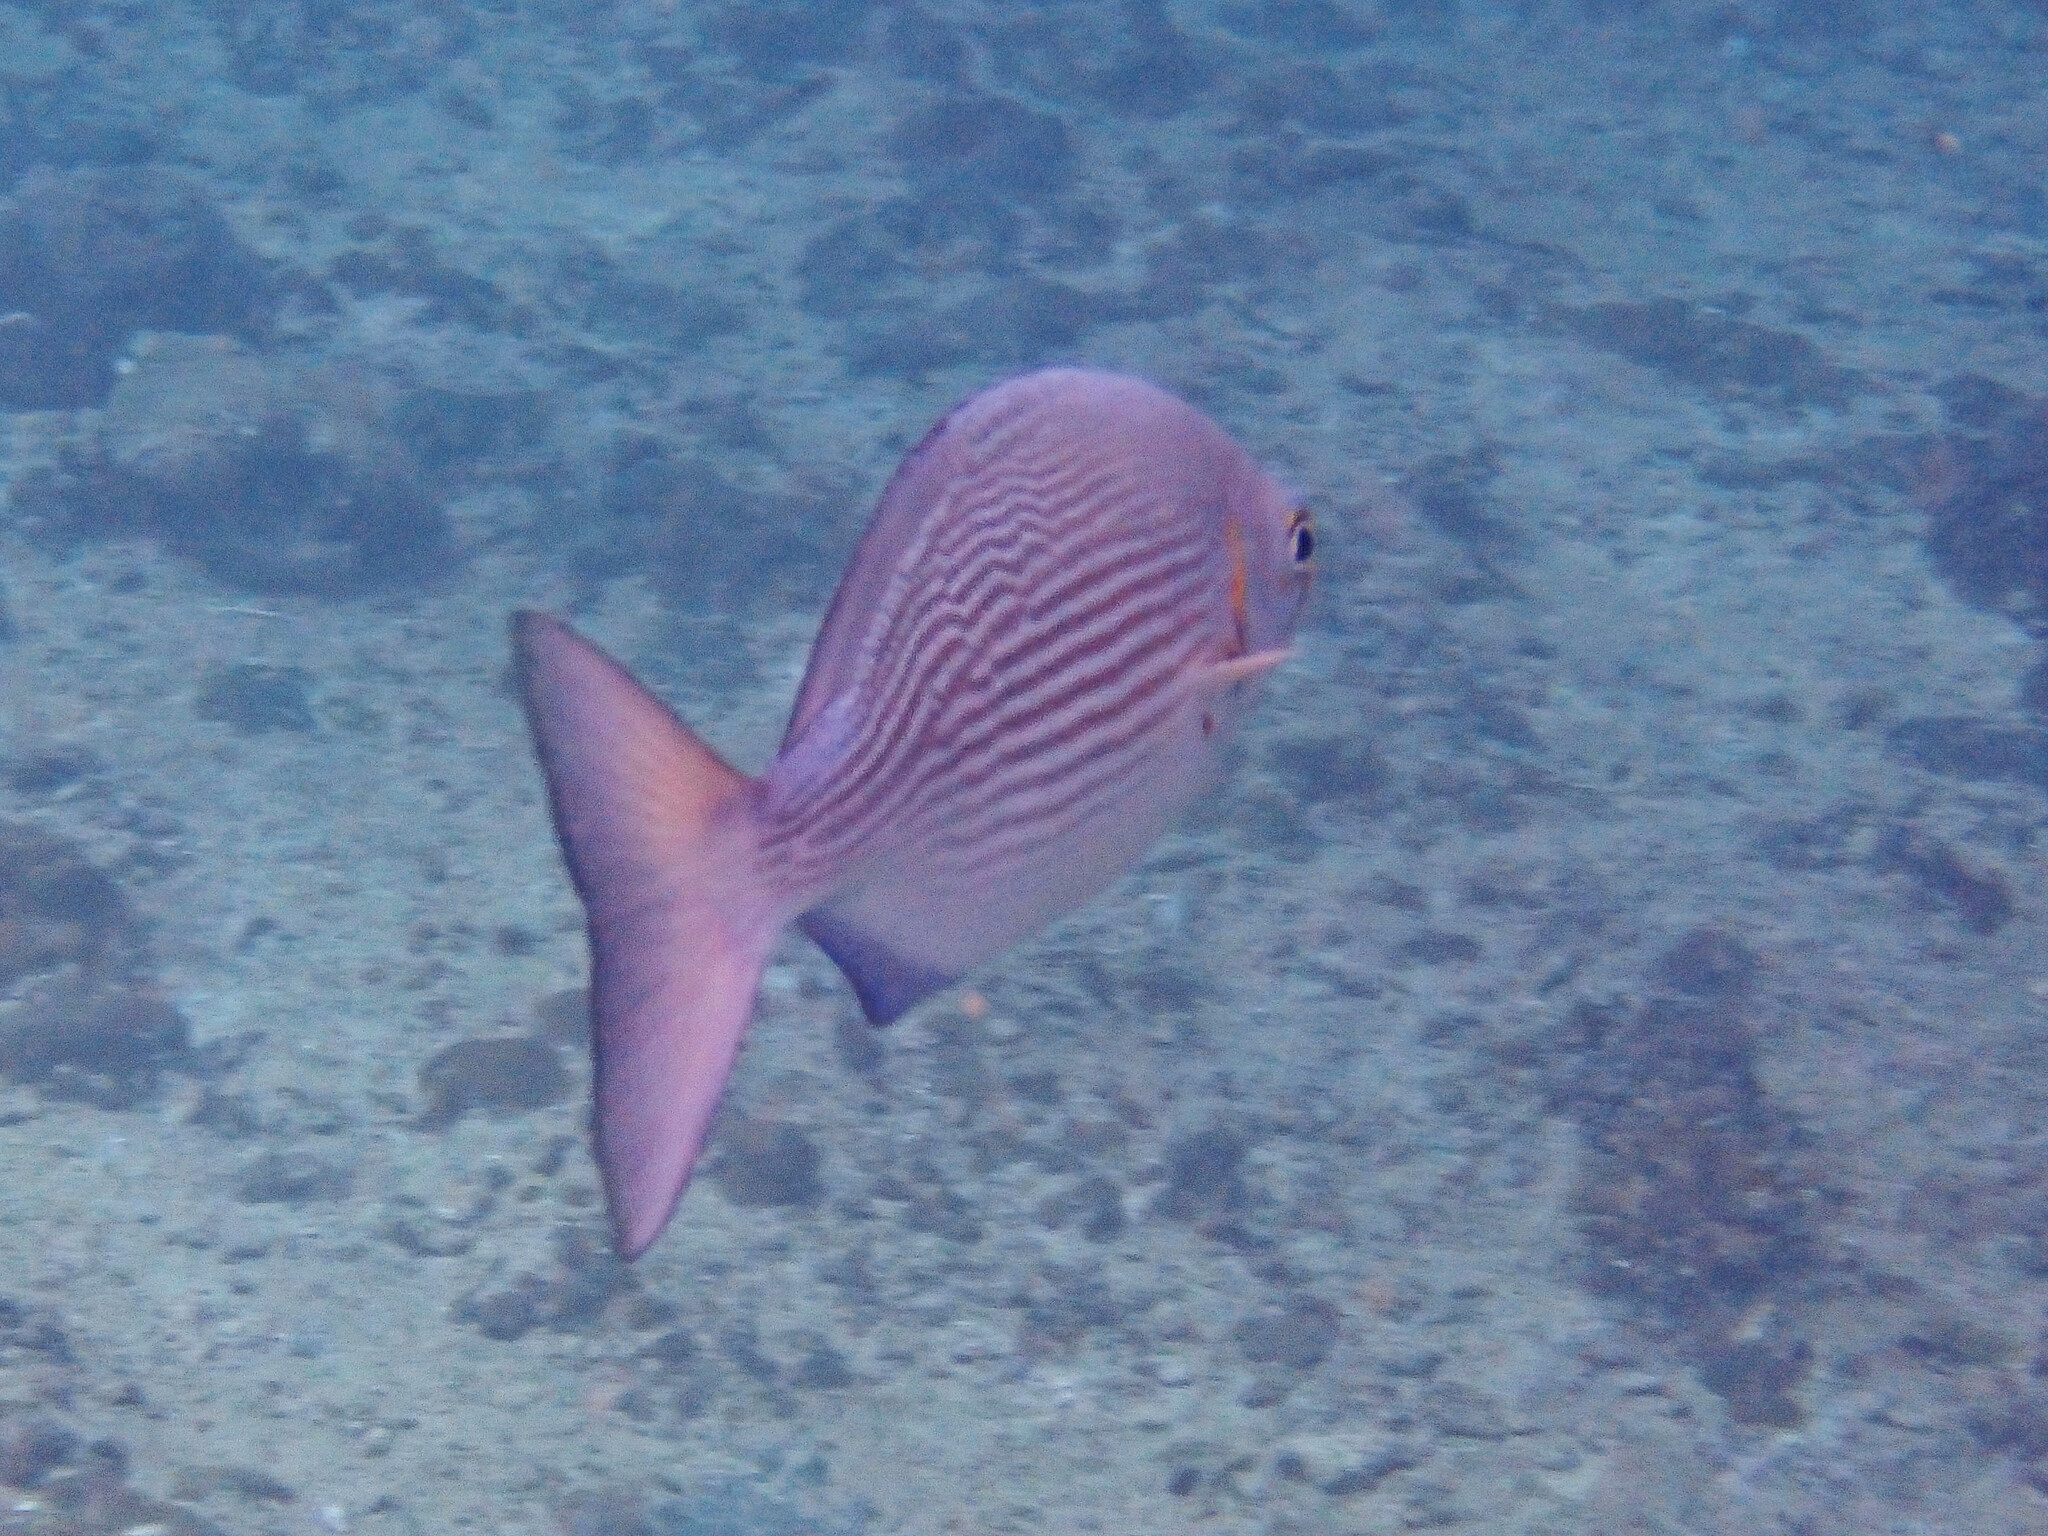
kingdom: Animalia
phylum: Chordata
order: Perciformes
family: Kyphosidae
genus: Kyphosus
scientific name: Kyphosus vaigiensis
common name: Brassy chub
